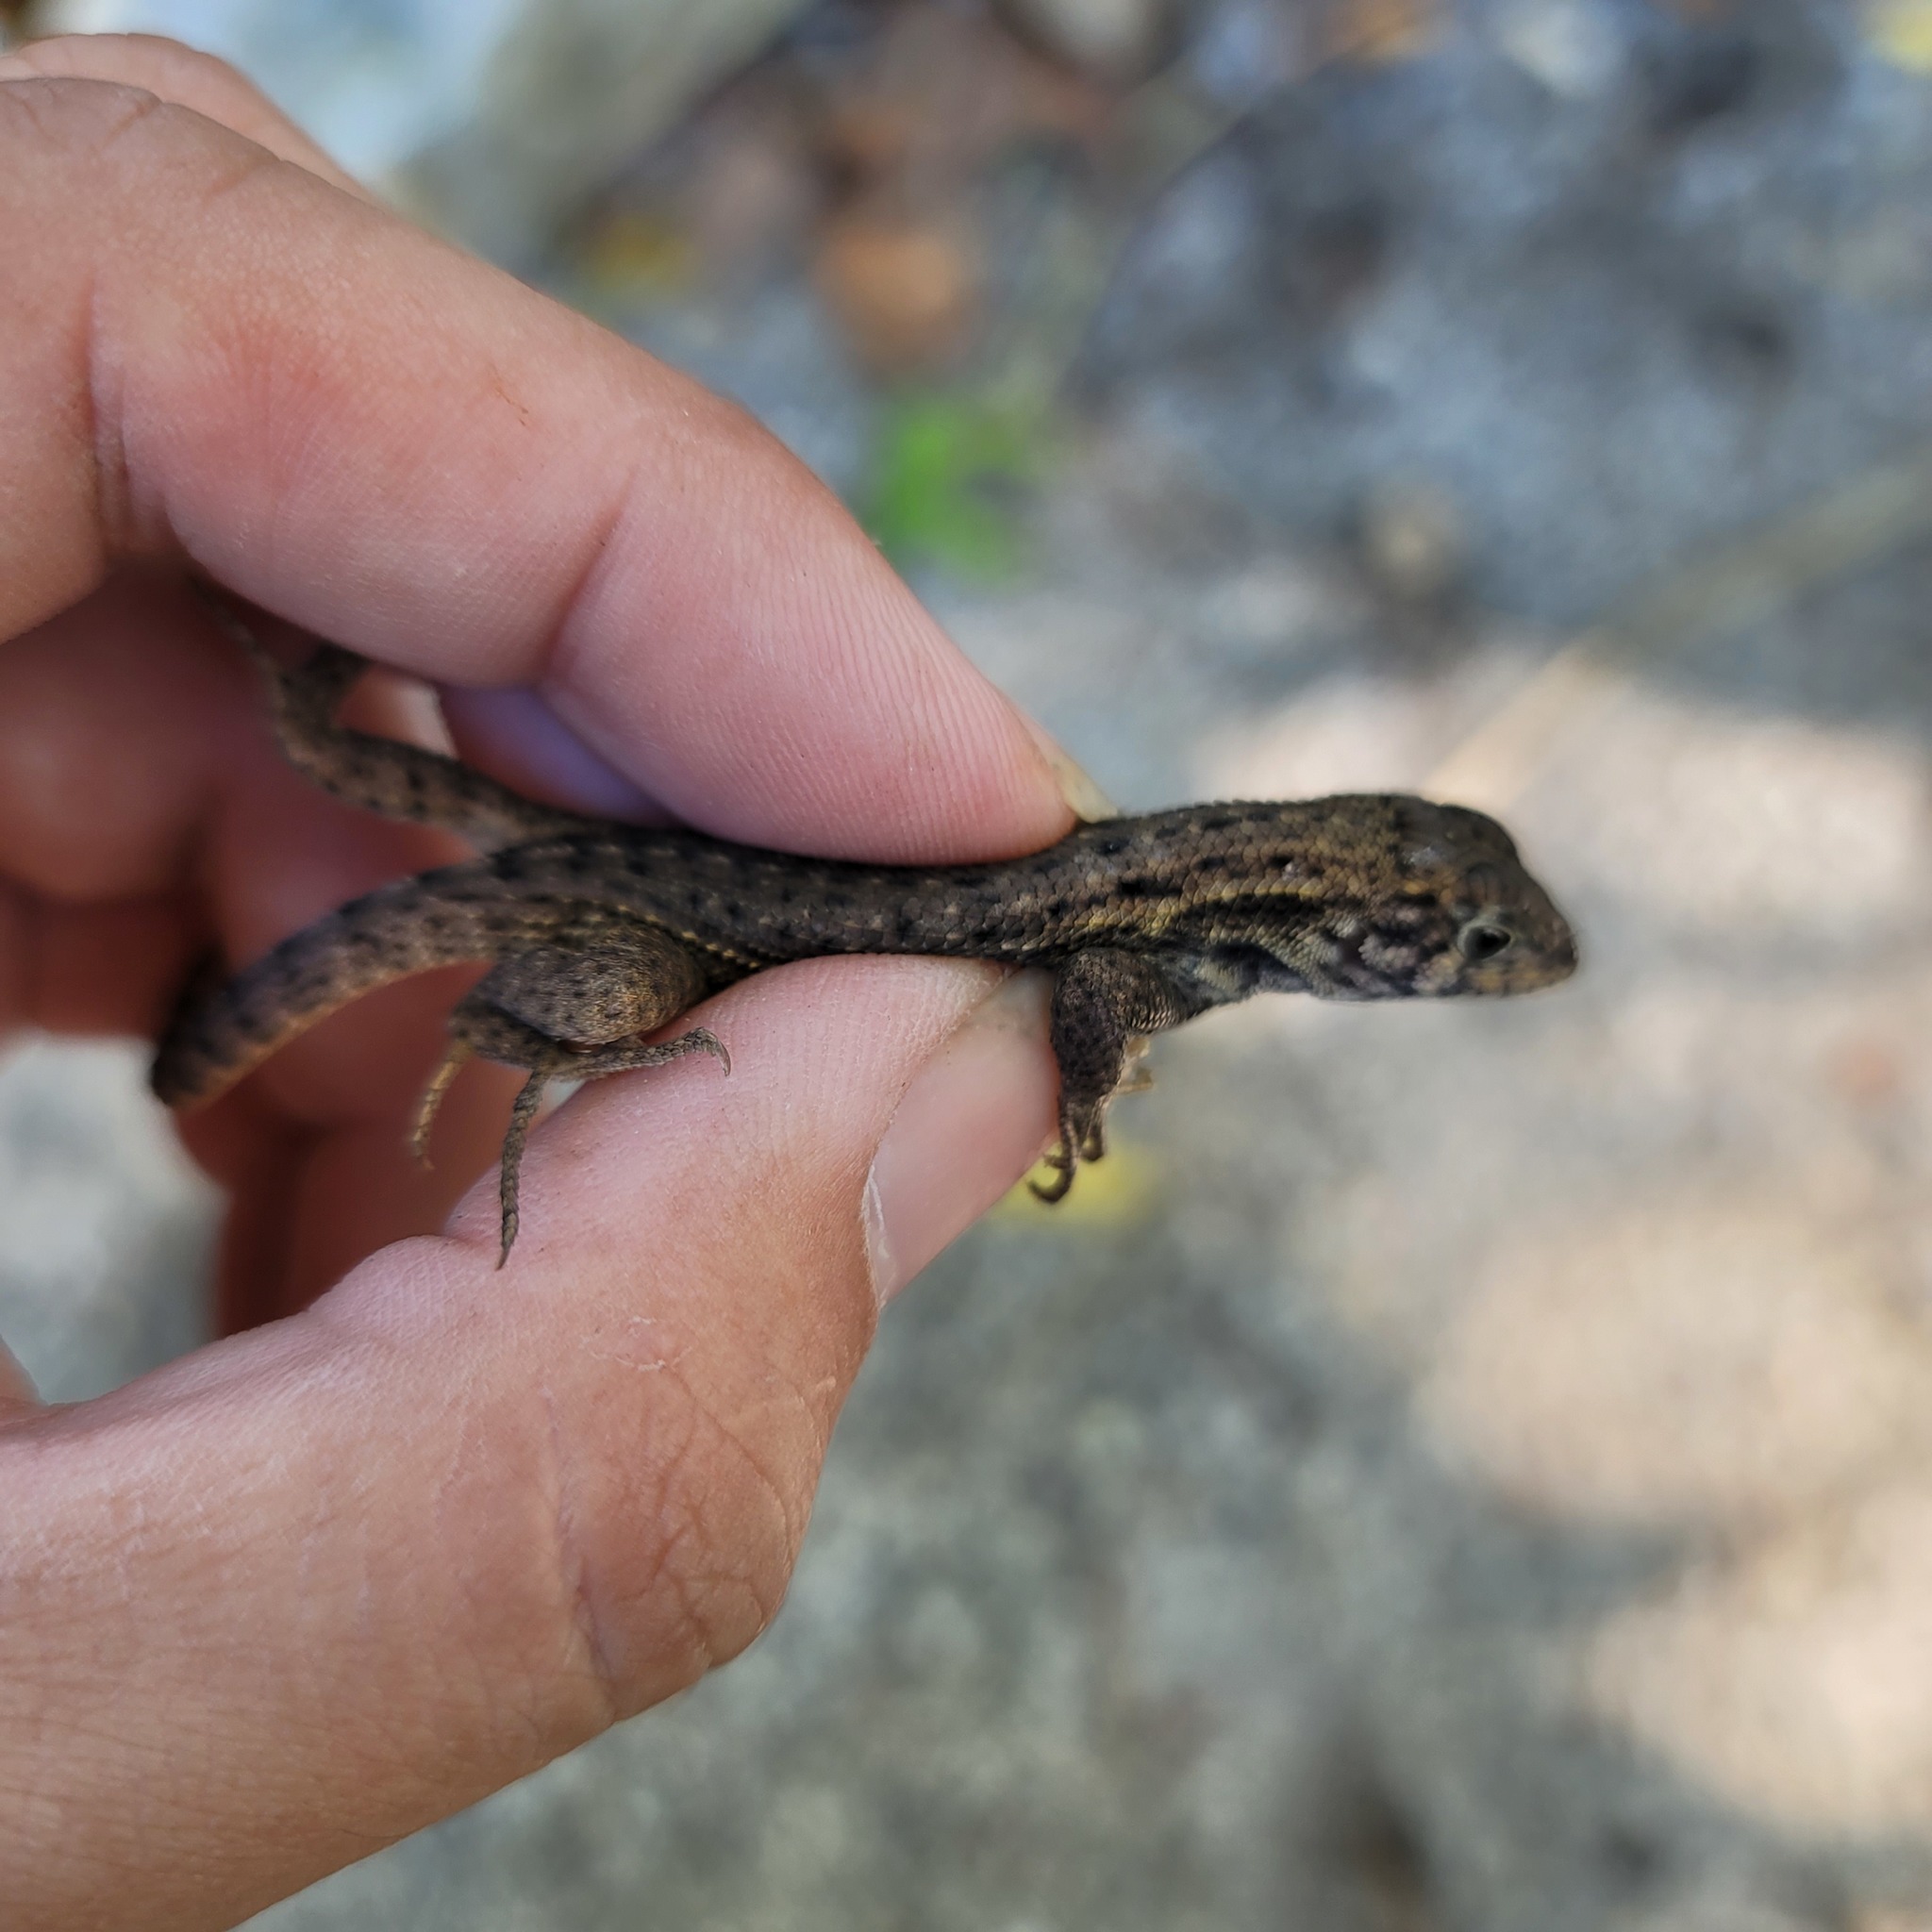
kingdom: Animalia
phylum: Chordata
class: Squamata
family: Leiocephalidae
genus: Leiocephalus
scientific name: Leiocephalus carinatus
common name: Northern curly-tailed lizard
